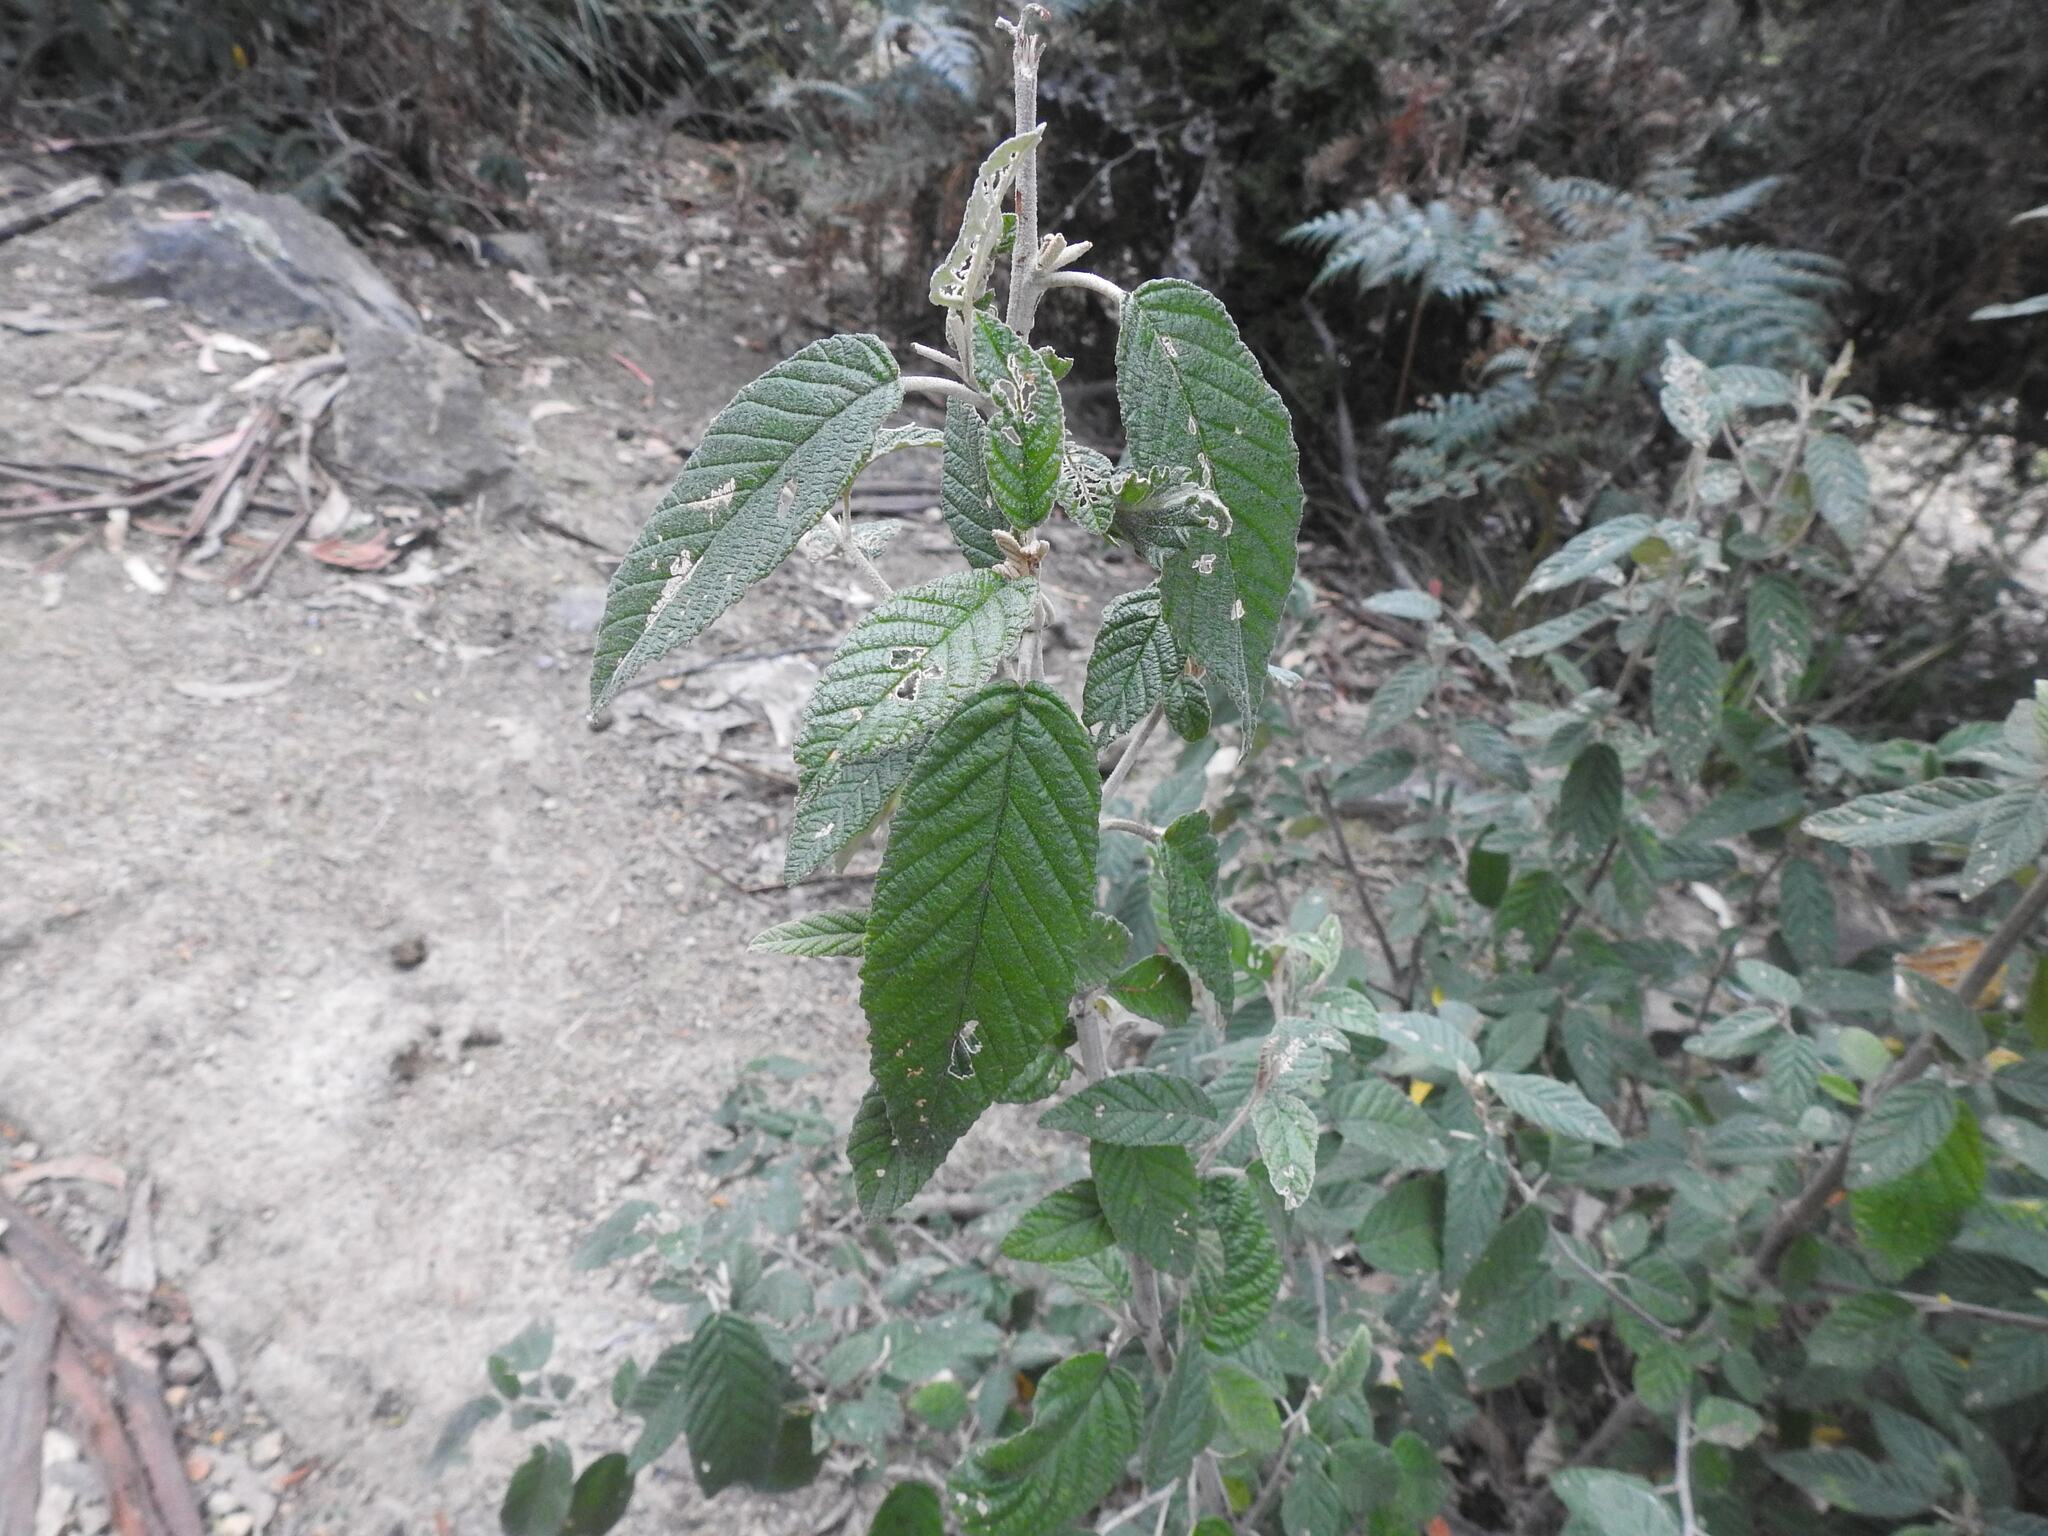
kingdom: Plantae
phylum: Tracheophyta
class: Magnoliopsida
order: Rosales
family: Rhamnaceae
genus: Pomaderris
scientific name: Pomaderris apetala
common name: Hazel pomaderris
